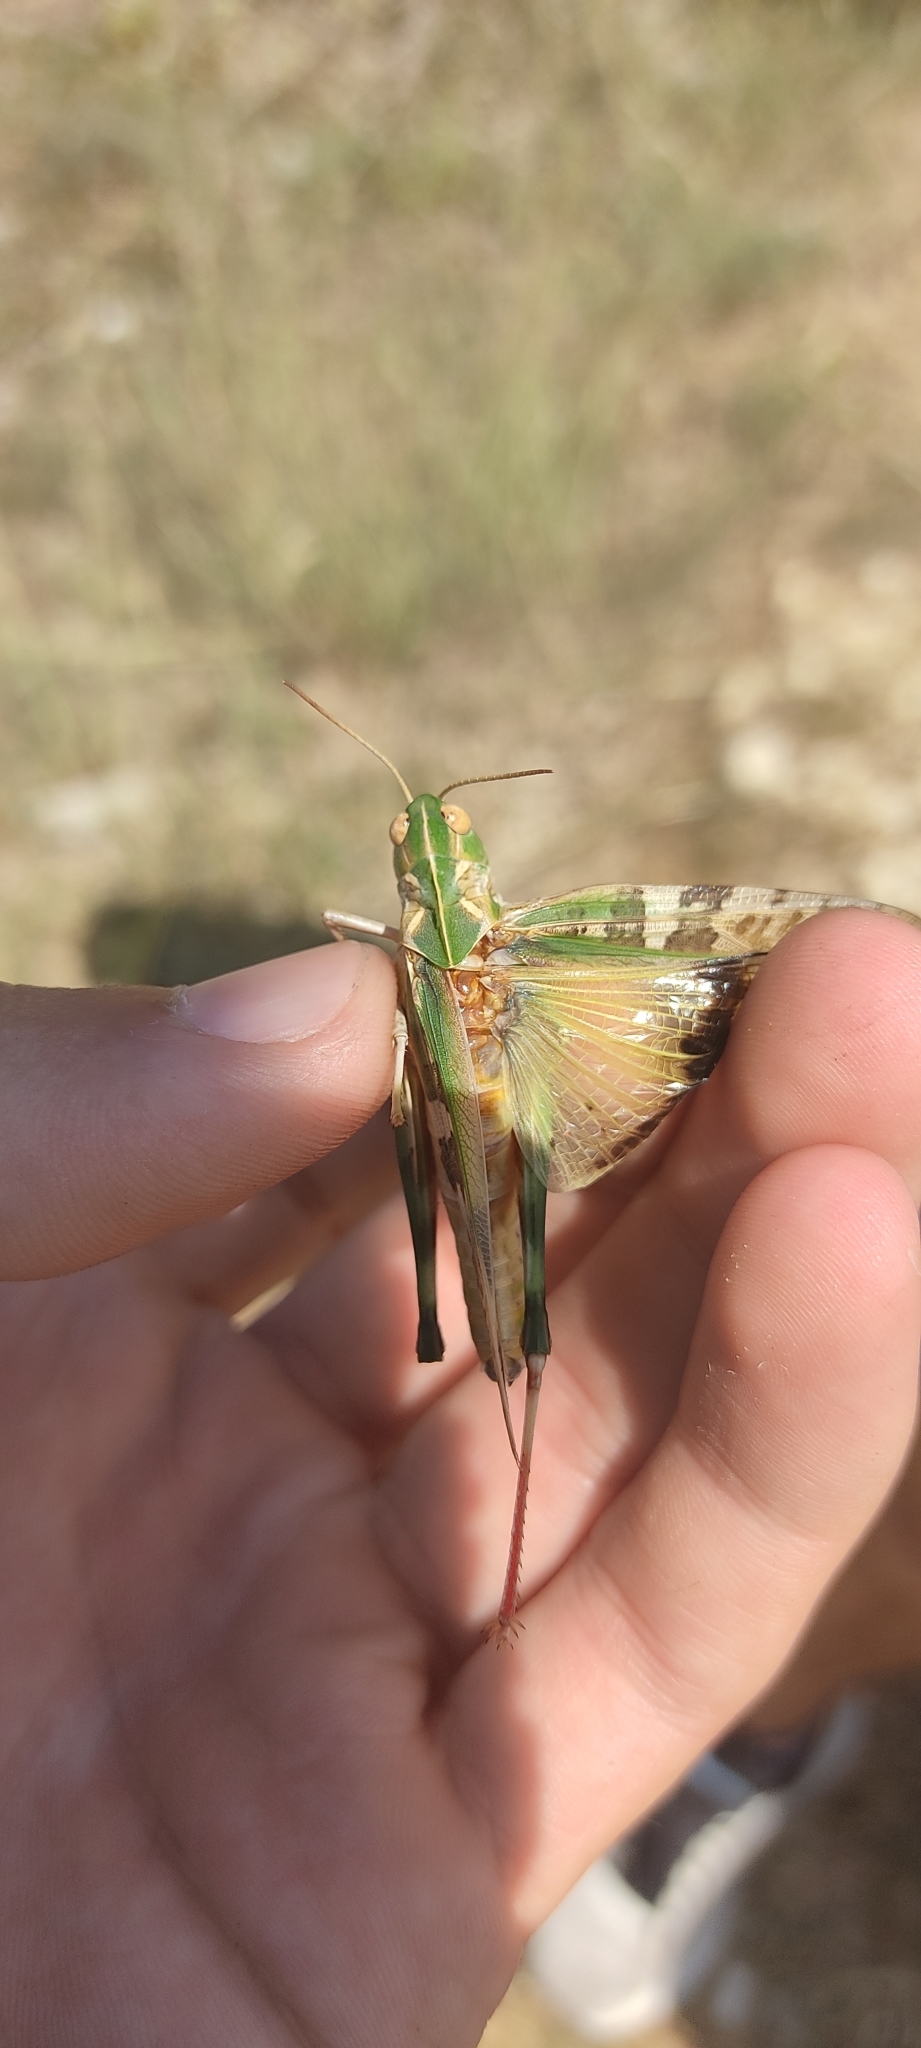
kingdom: Animalia
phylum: Arthropoda
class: Insecta
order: Orthoptera
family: Acrididae
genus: Oedaleus
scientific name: Oedaleus decorus
